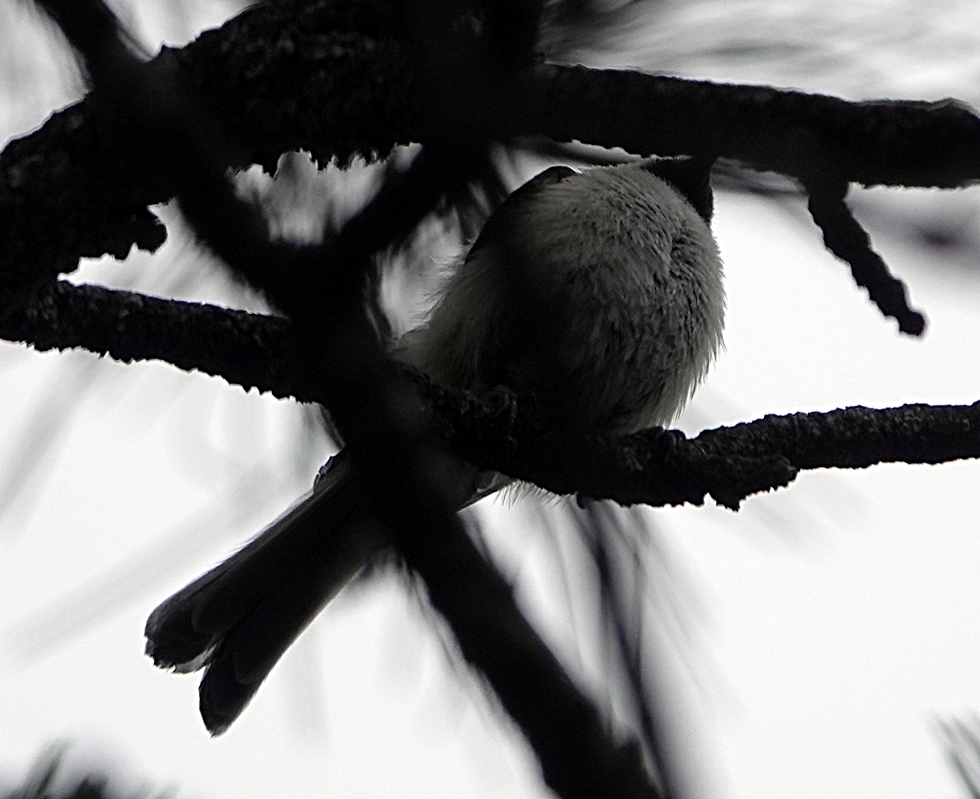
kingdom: Animalia
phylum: Chordata
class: Aves
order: Passeriformes
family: Paridae
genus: Poecile
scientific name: Poecile atricapillus
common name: Black-capped chickadee
